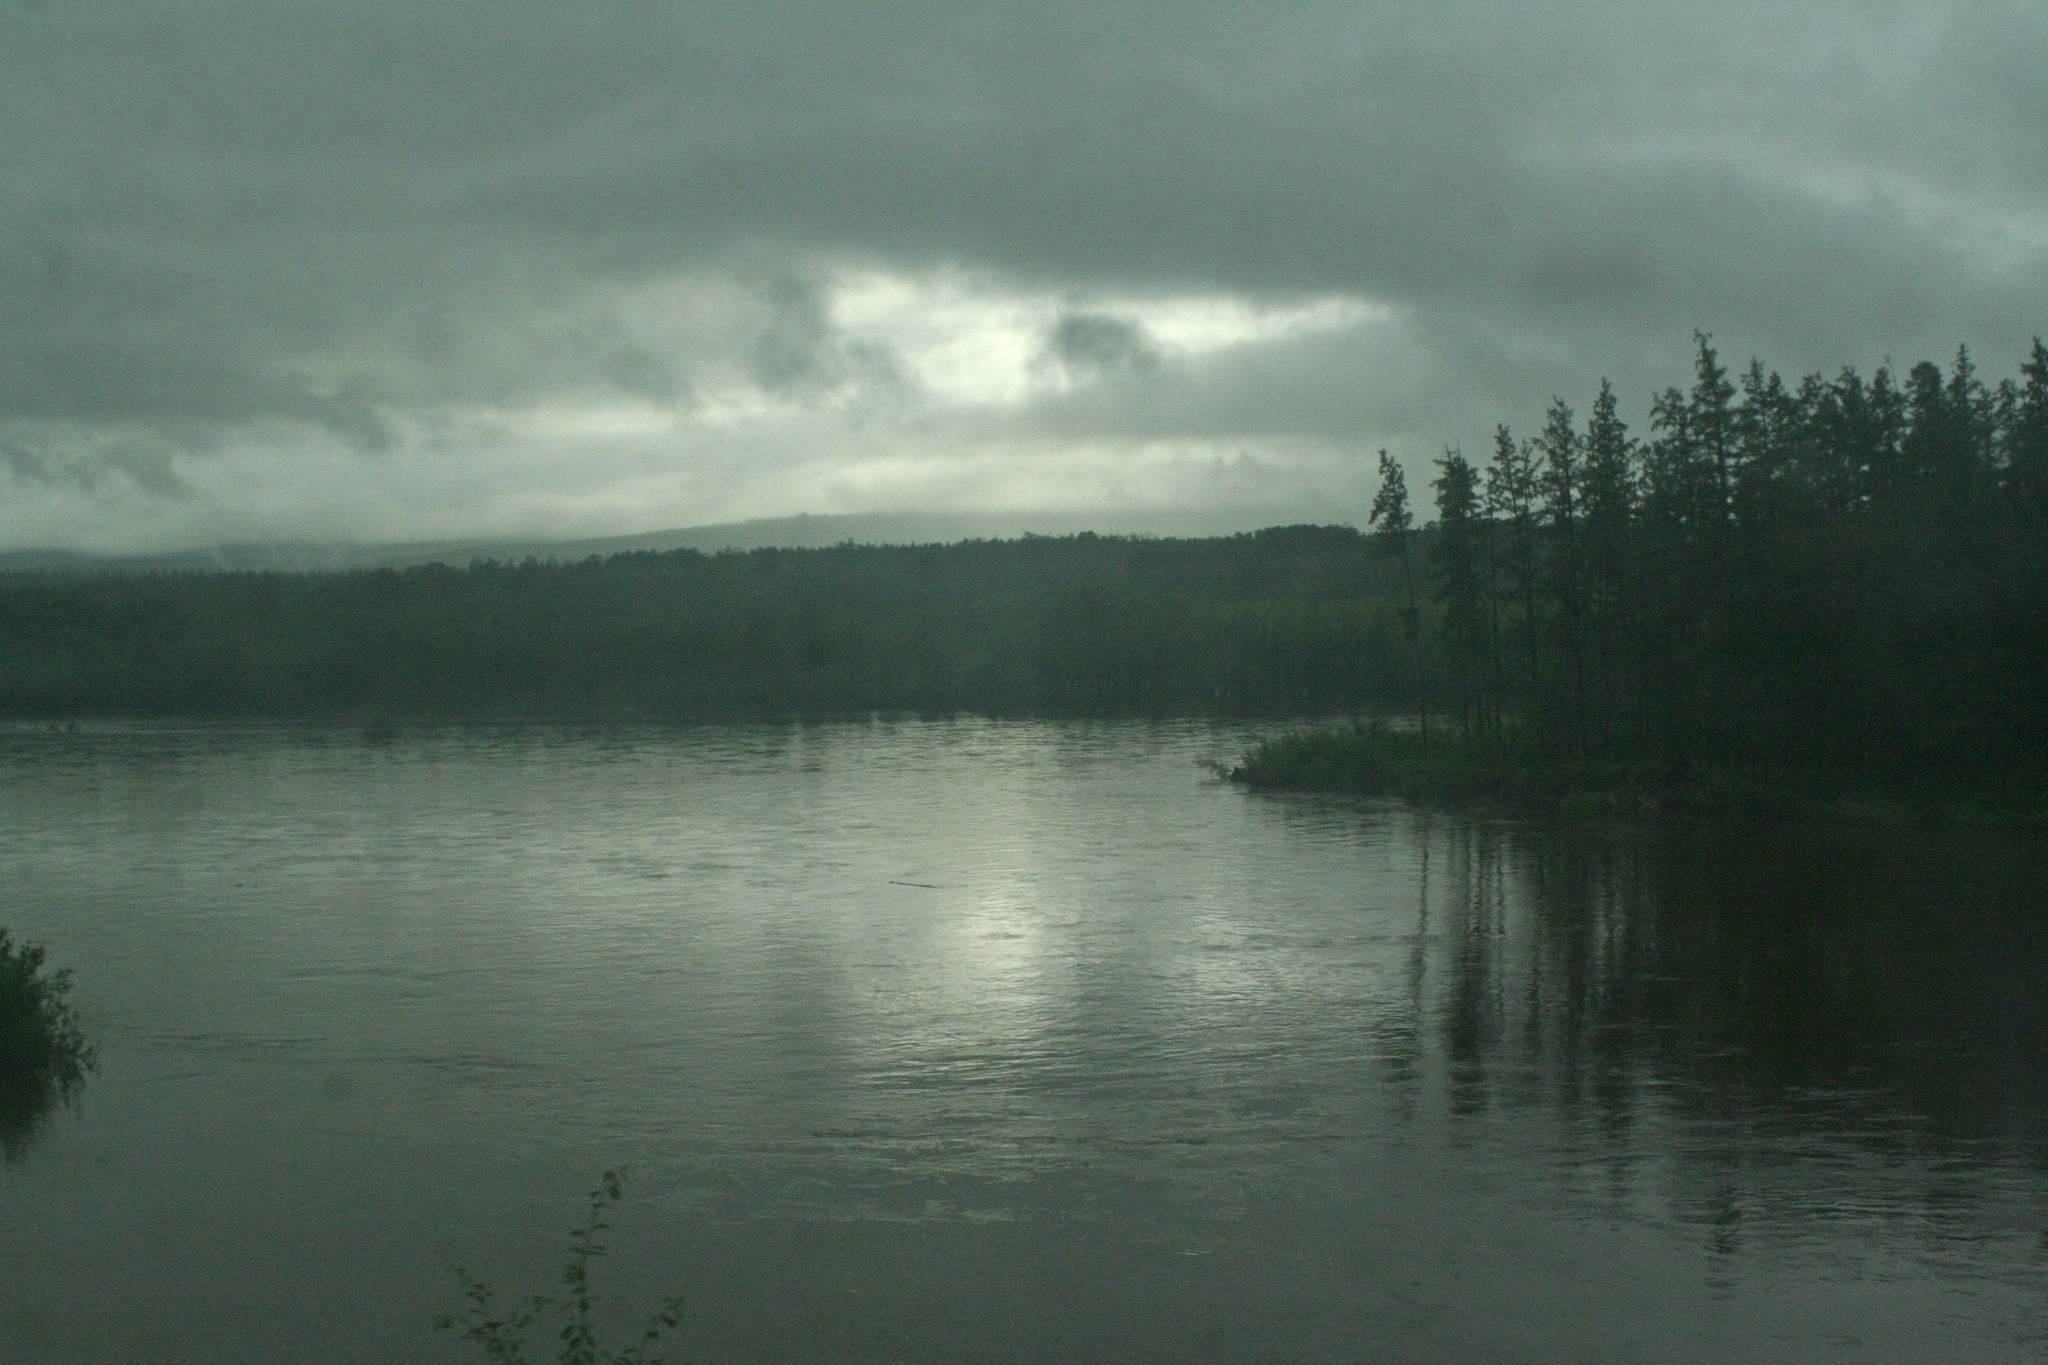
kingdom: Plantae
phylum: Tracheophyta
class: Pinopsida
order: Pinales
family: Pinaceae
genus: Larix
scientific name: Larix gmelinii
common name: Dahurian larch
